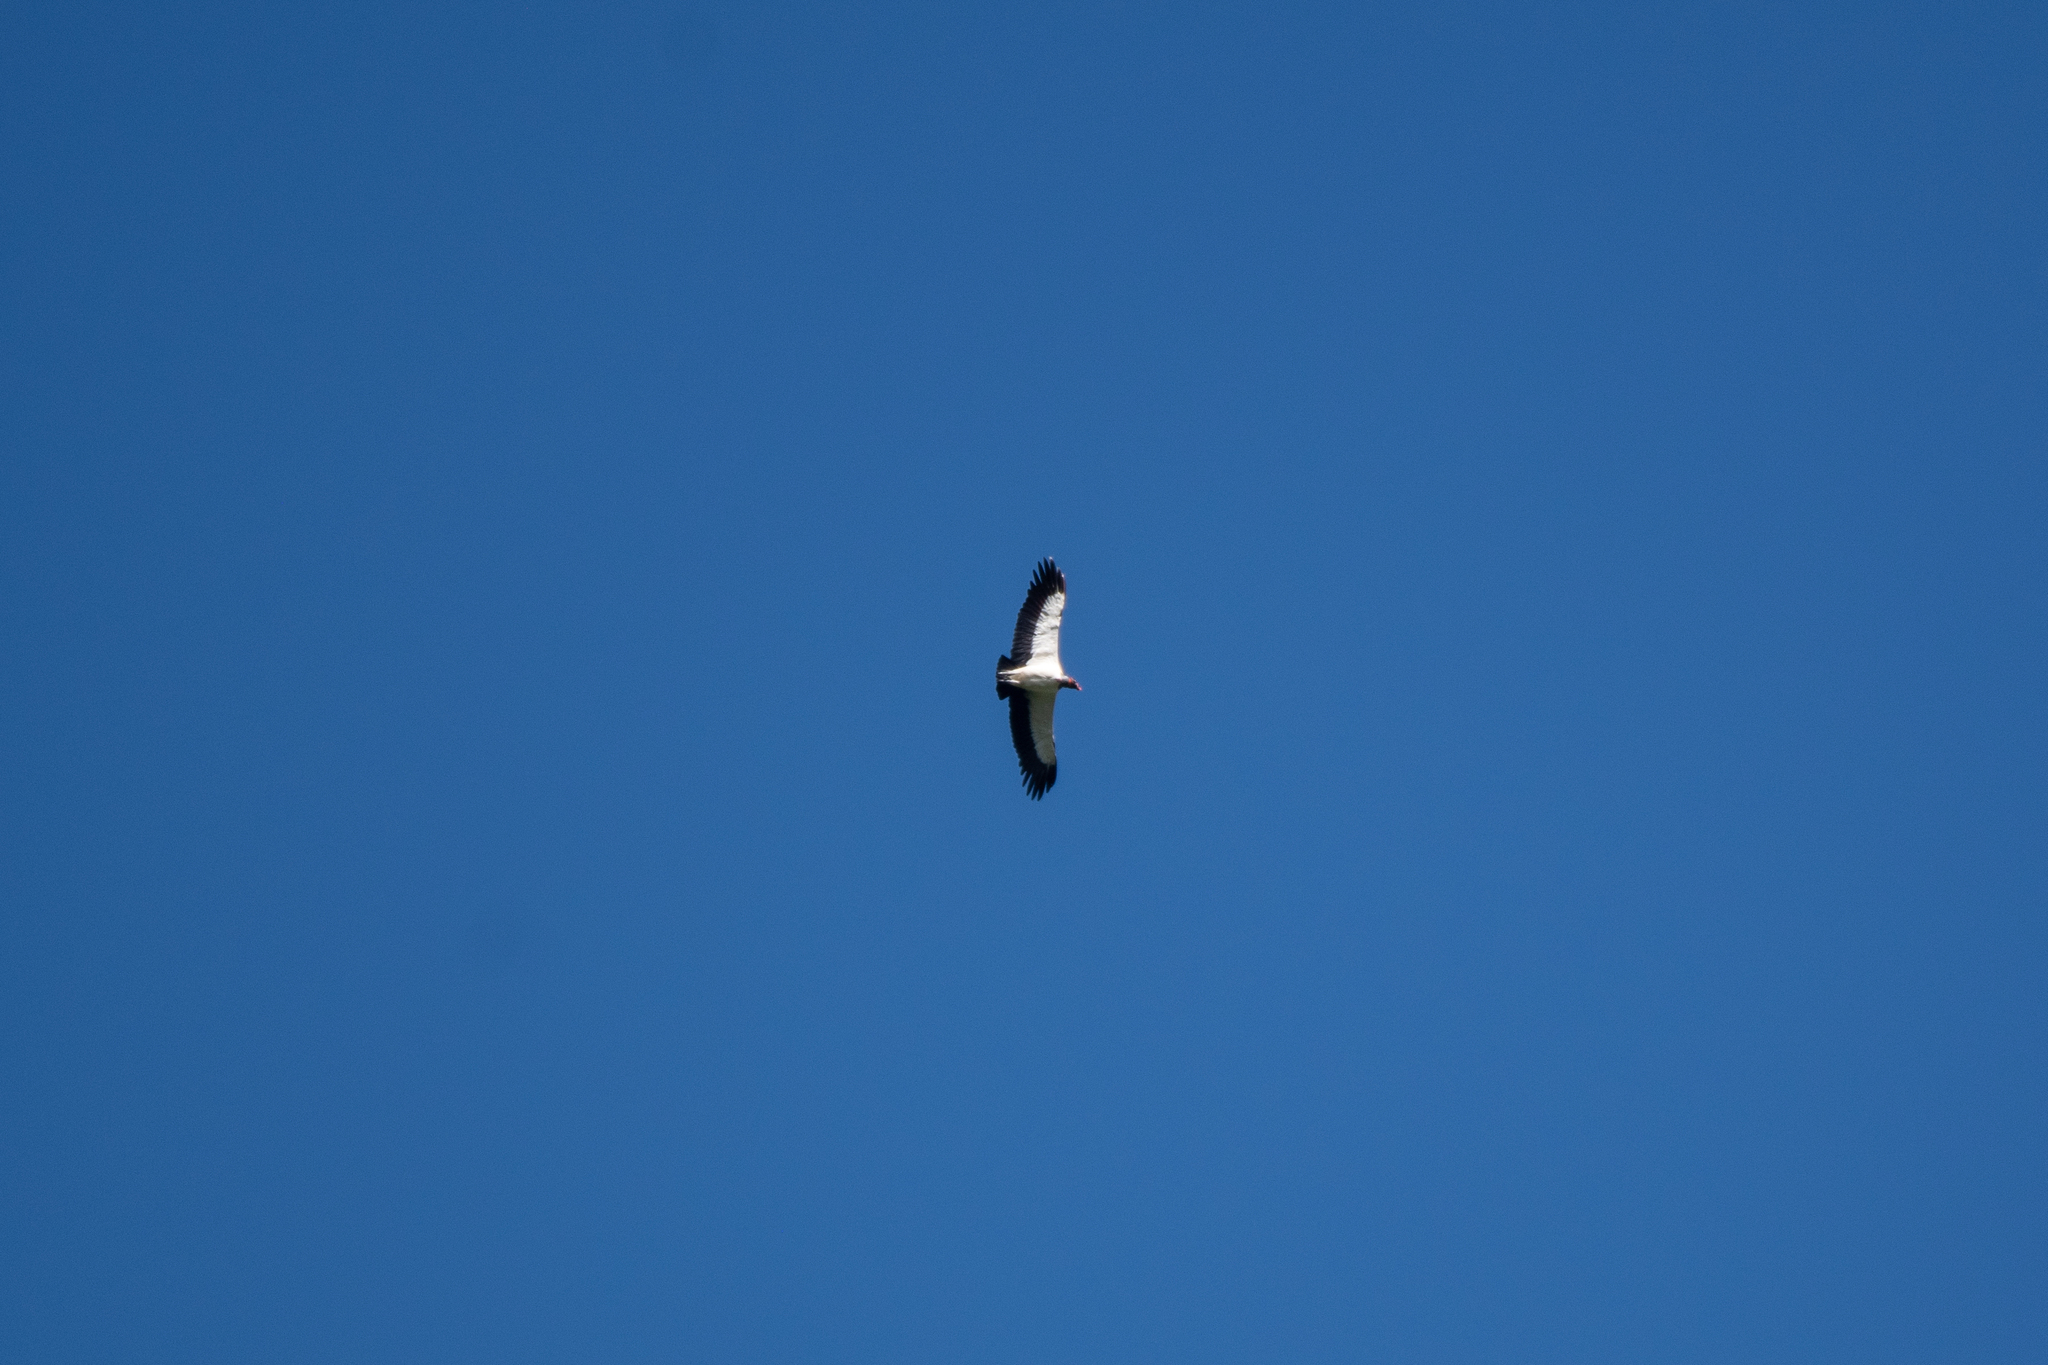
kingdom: Animalia
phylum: Chordata
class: Aves
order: Accipitriformes
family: Cathartidae
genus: Sarcoramphus
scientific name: Sarcoramphus papa
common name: King vulture
